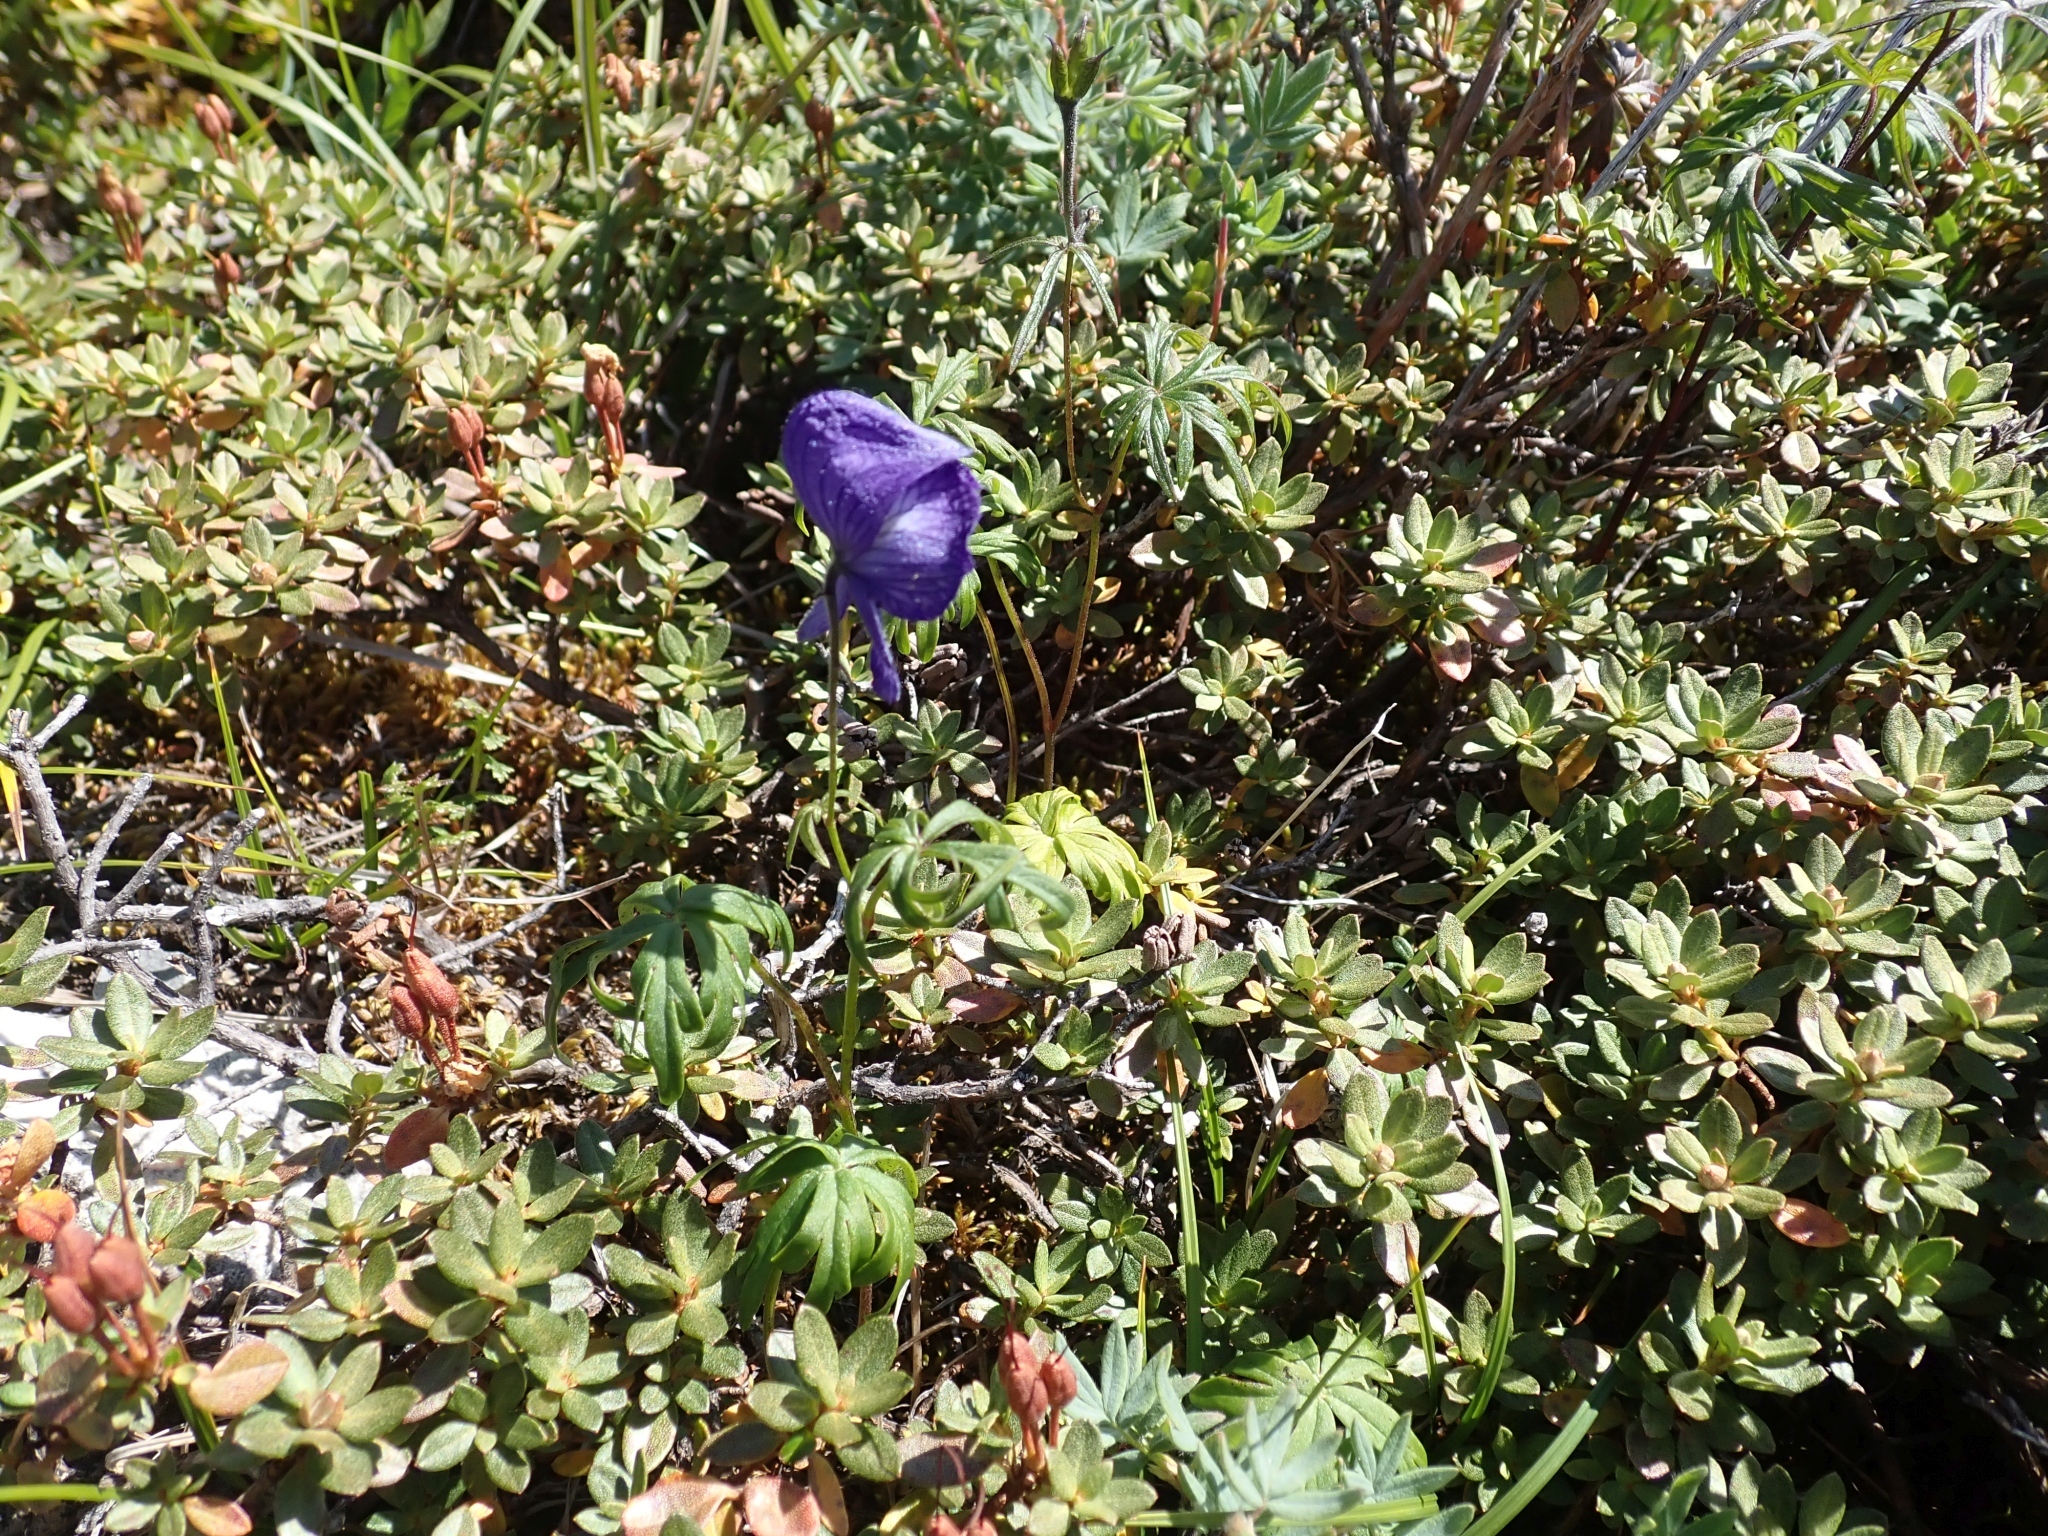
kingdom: Plantae
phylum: Tracheophyta
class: Magnoliopsida
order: Ranunculales
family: Ranunculaceae
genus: Aconitum
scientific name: Aconitum delphiniifolium
